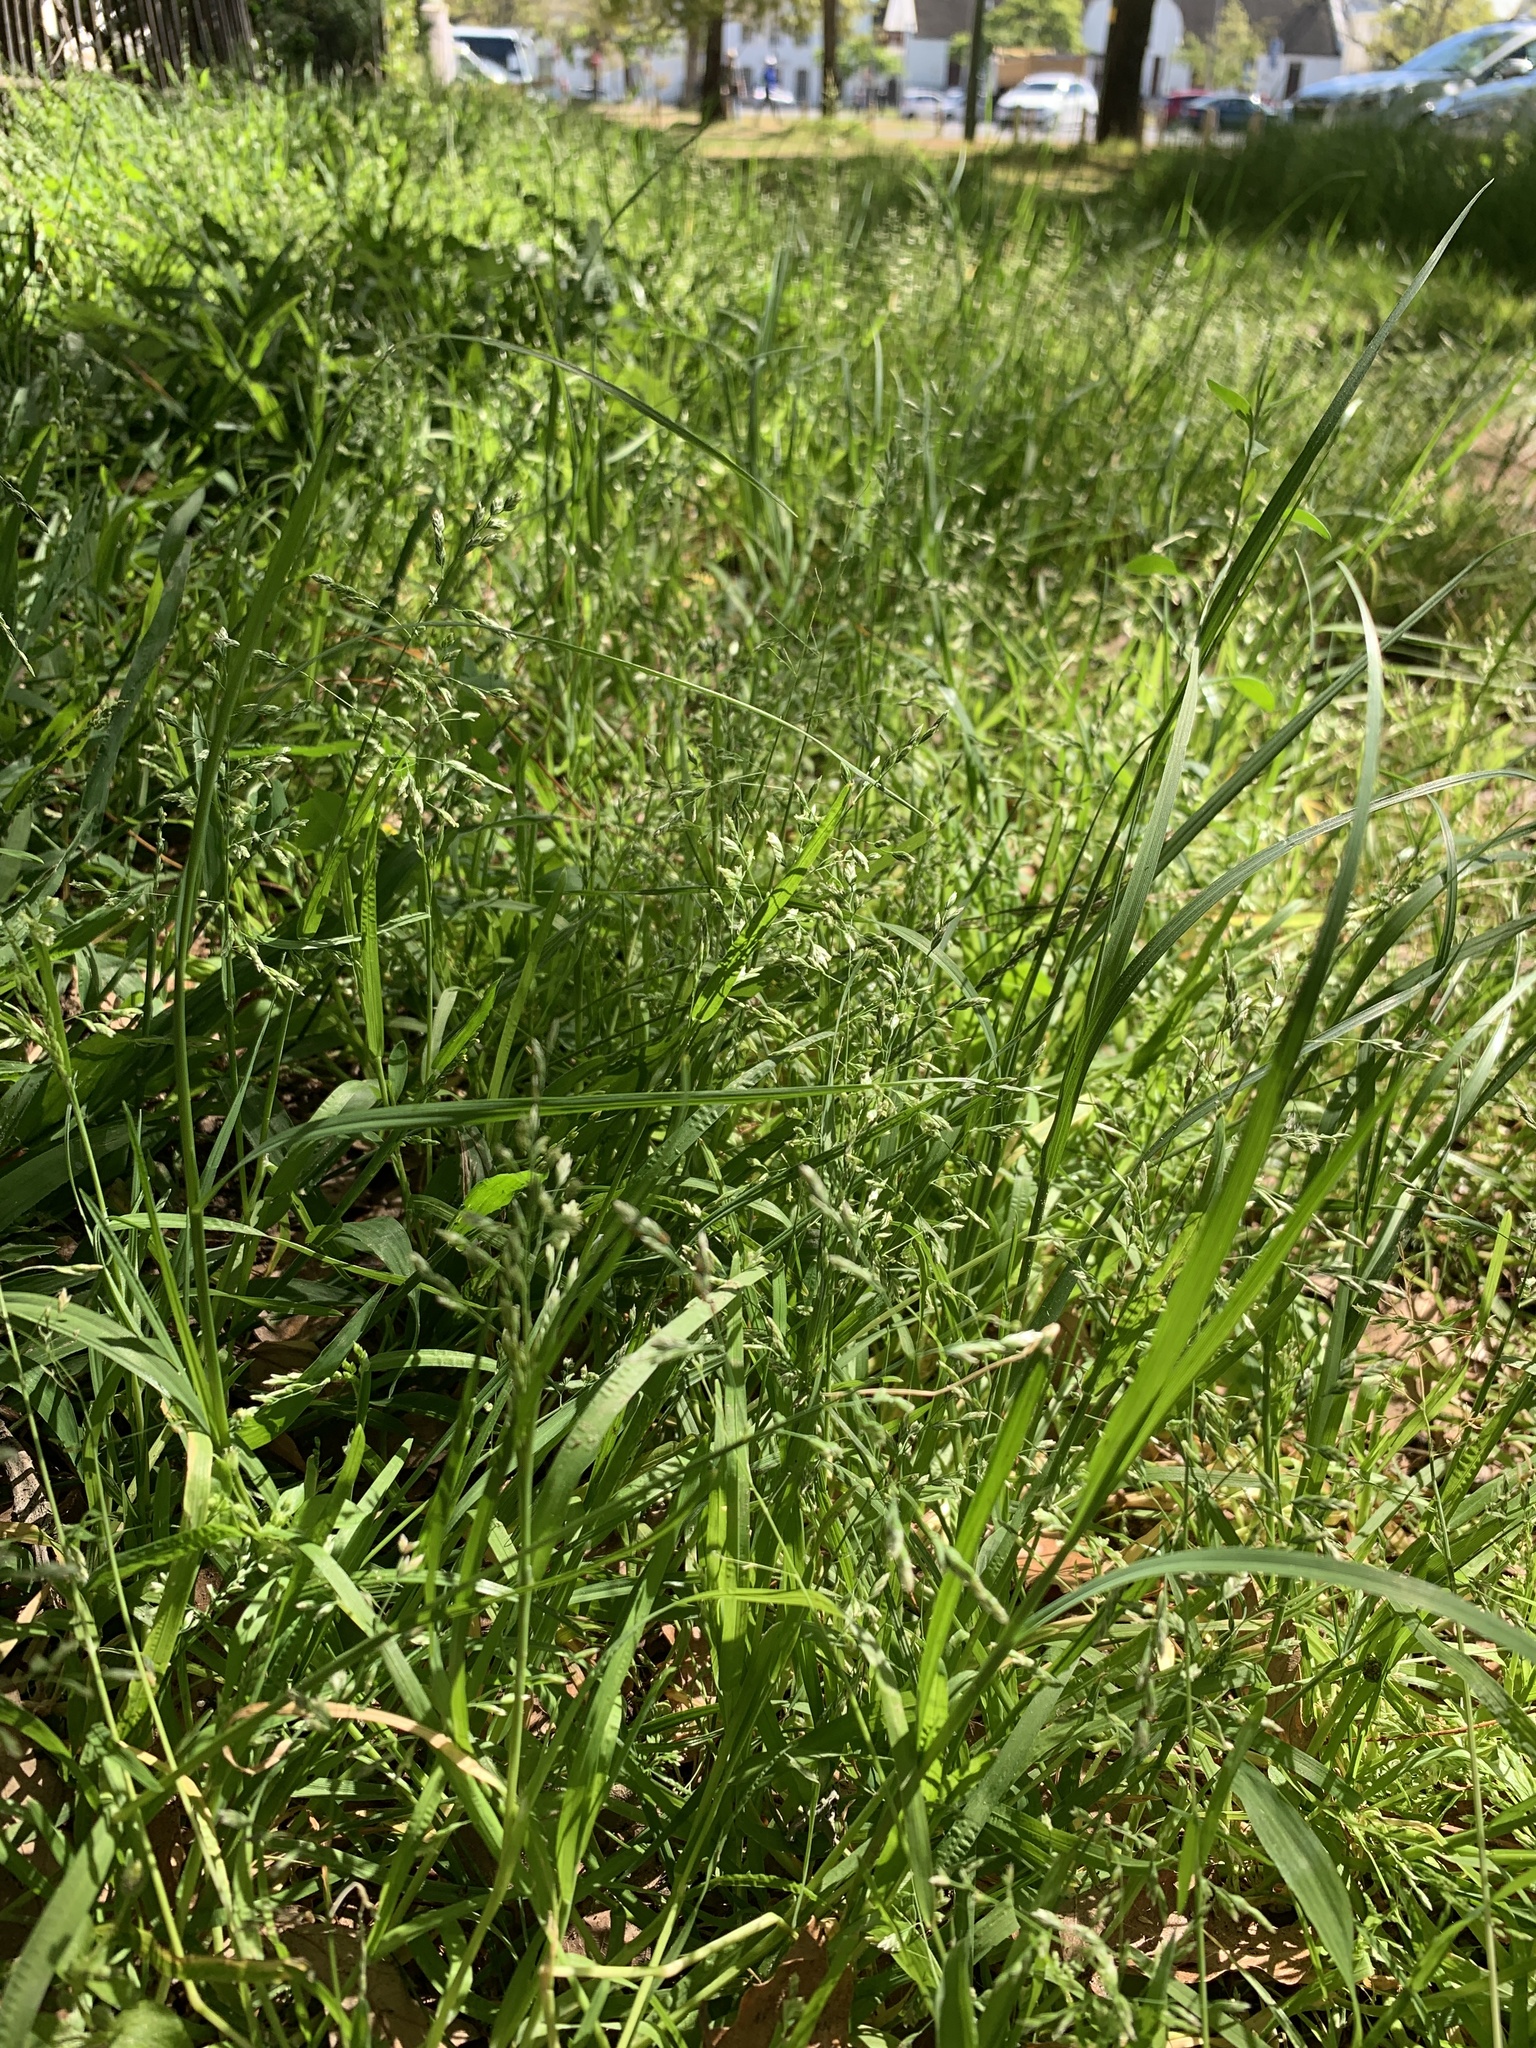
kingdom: Plantae
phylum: Tracheophyta
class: Liliopsida
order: Poales
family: Poaceae
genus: Poa
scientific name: Poa annua
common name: Annual bluegrass
